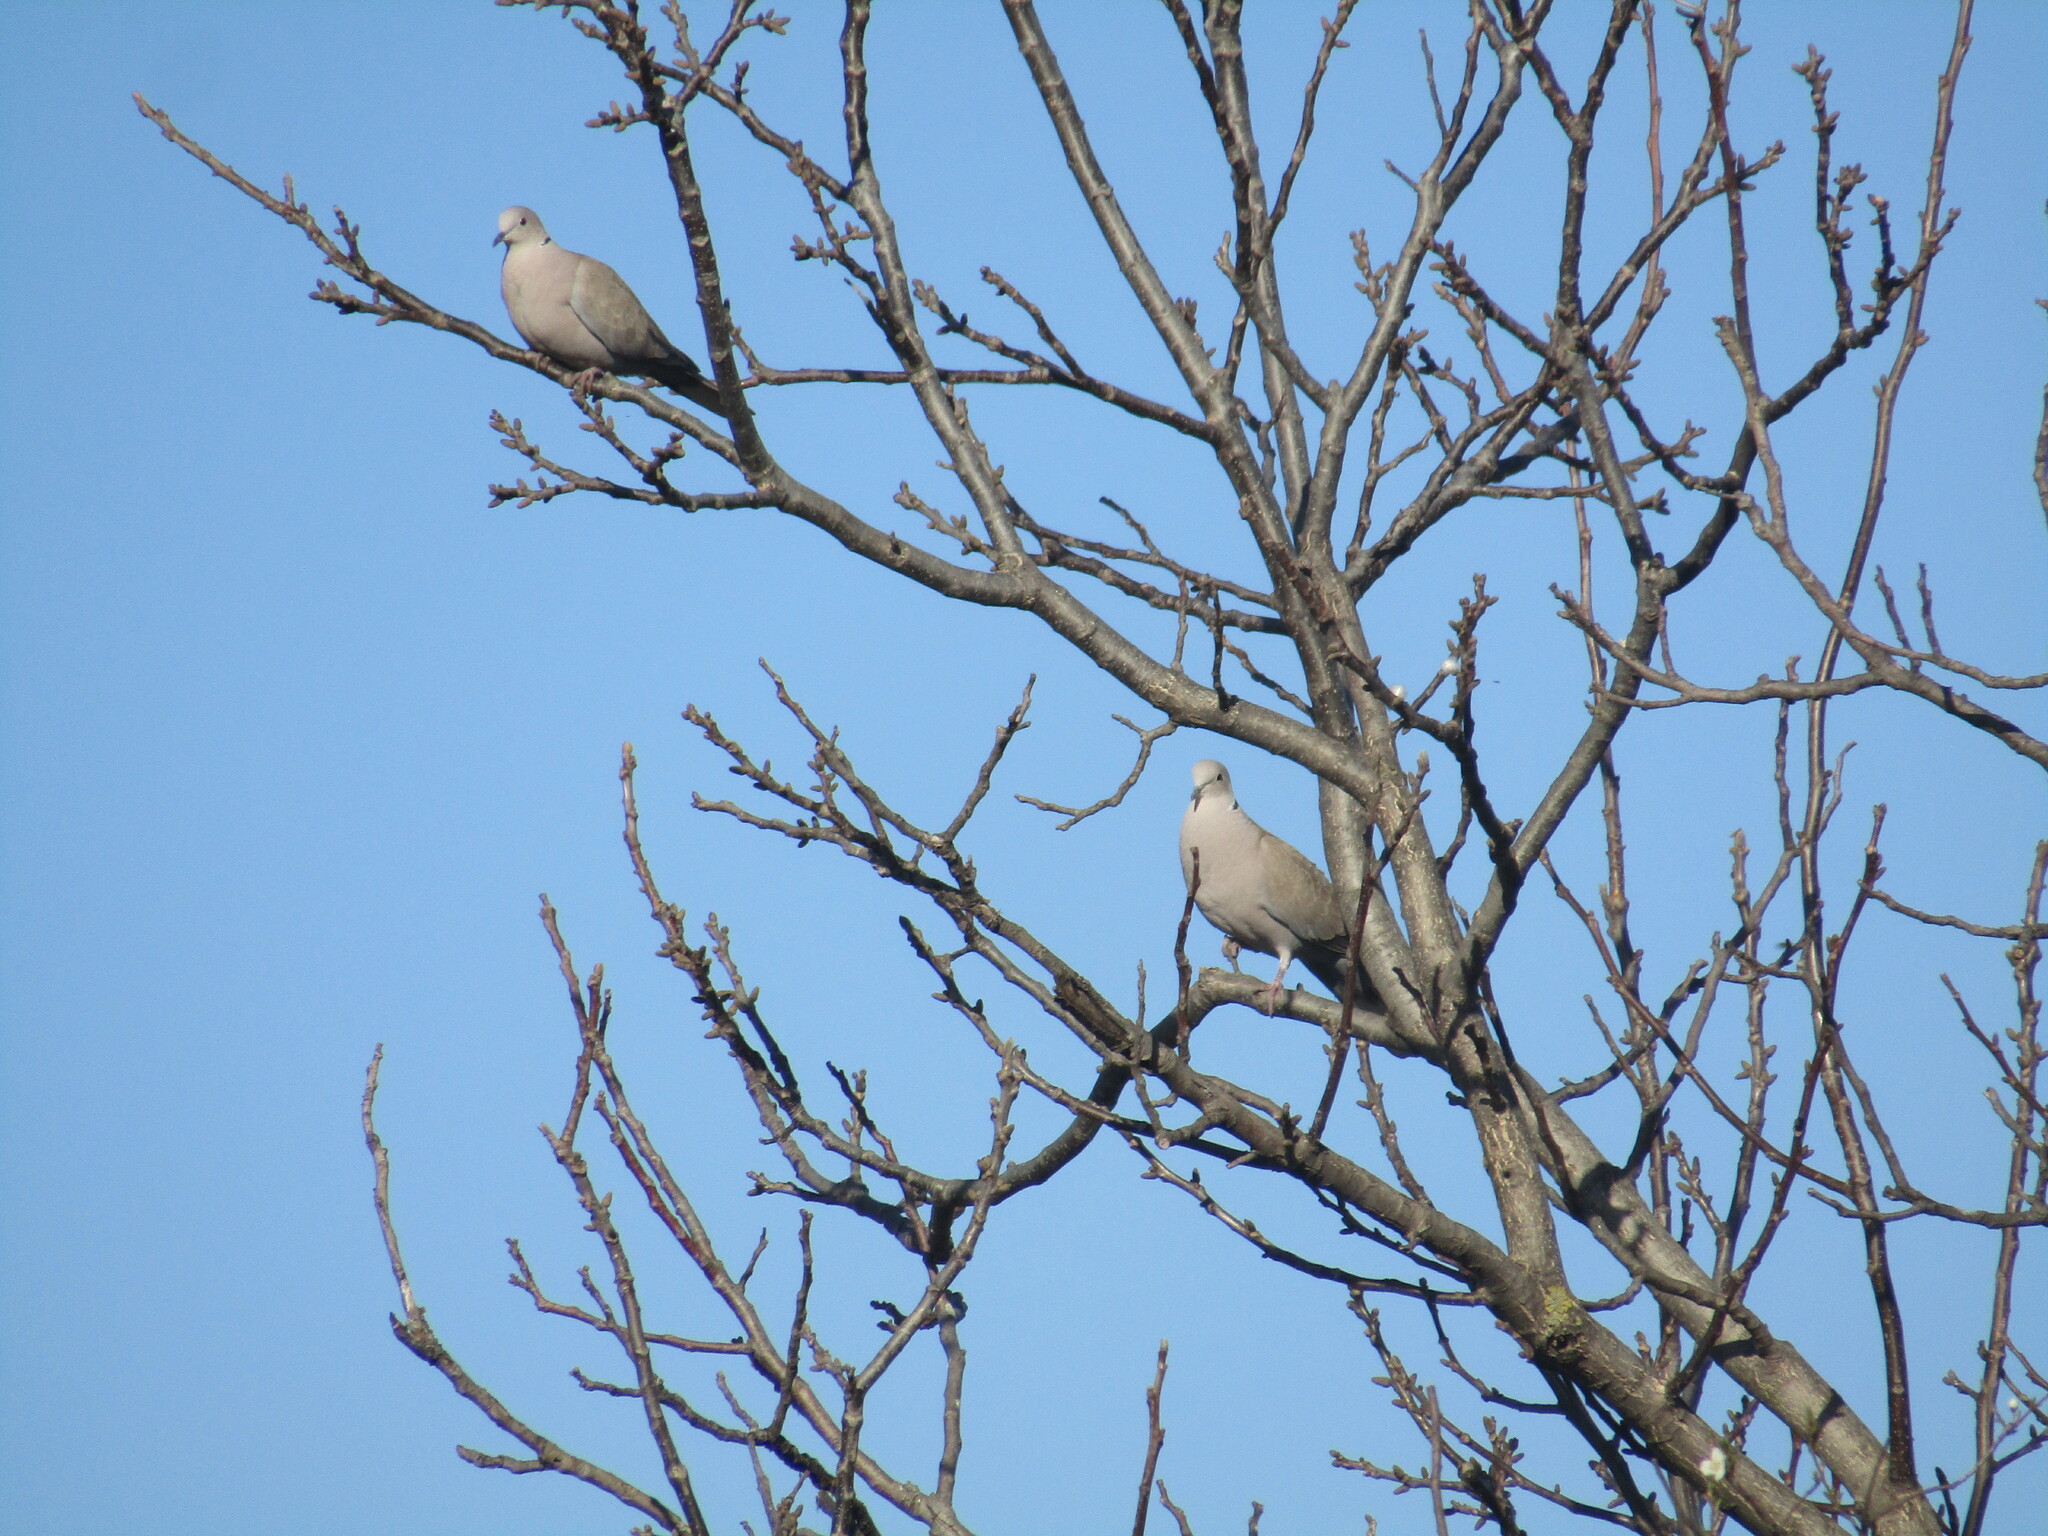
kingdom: Animalia
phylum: Chordata
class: Aves
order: Columbiformes
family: Columbidae
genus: Streptopelia
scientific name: Streptopelia decaocto
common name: Eurasian collared dove
